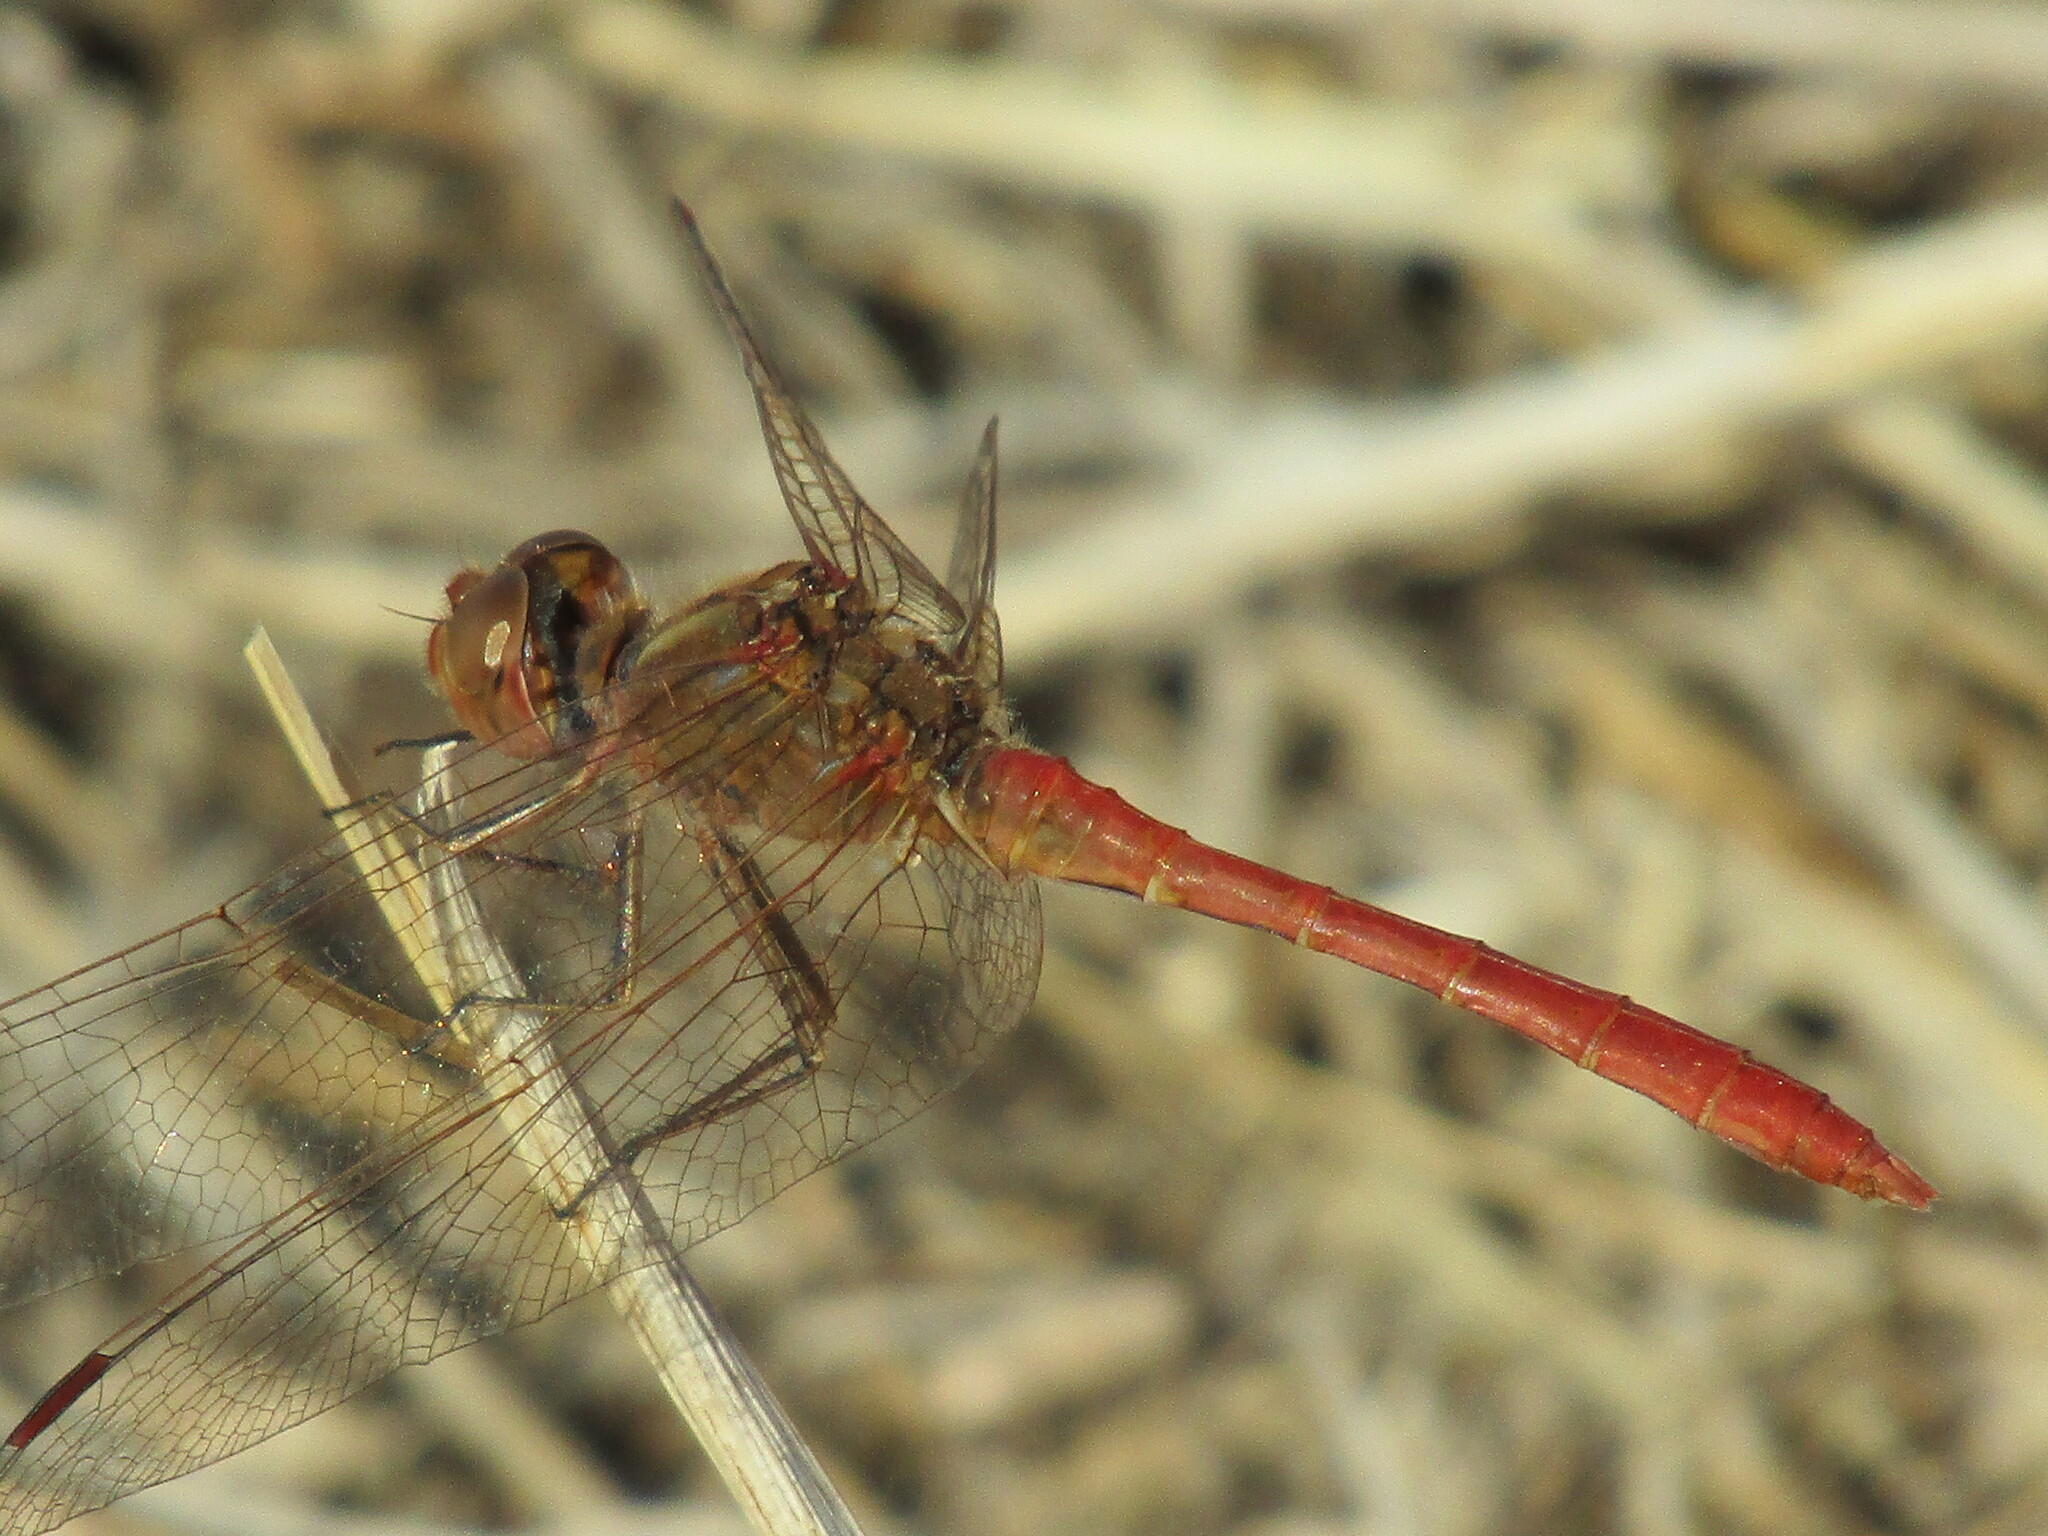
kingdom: Animalia
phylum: Arthropoda
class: Insecta
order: Odonata
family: Libellulidae
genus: Sympetrum
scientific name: Sympetrum meridionale
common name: Southern darter
